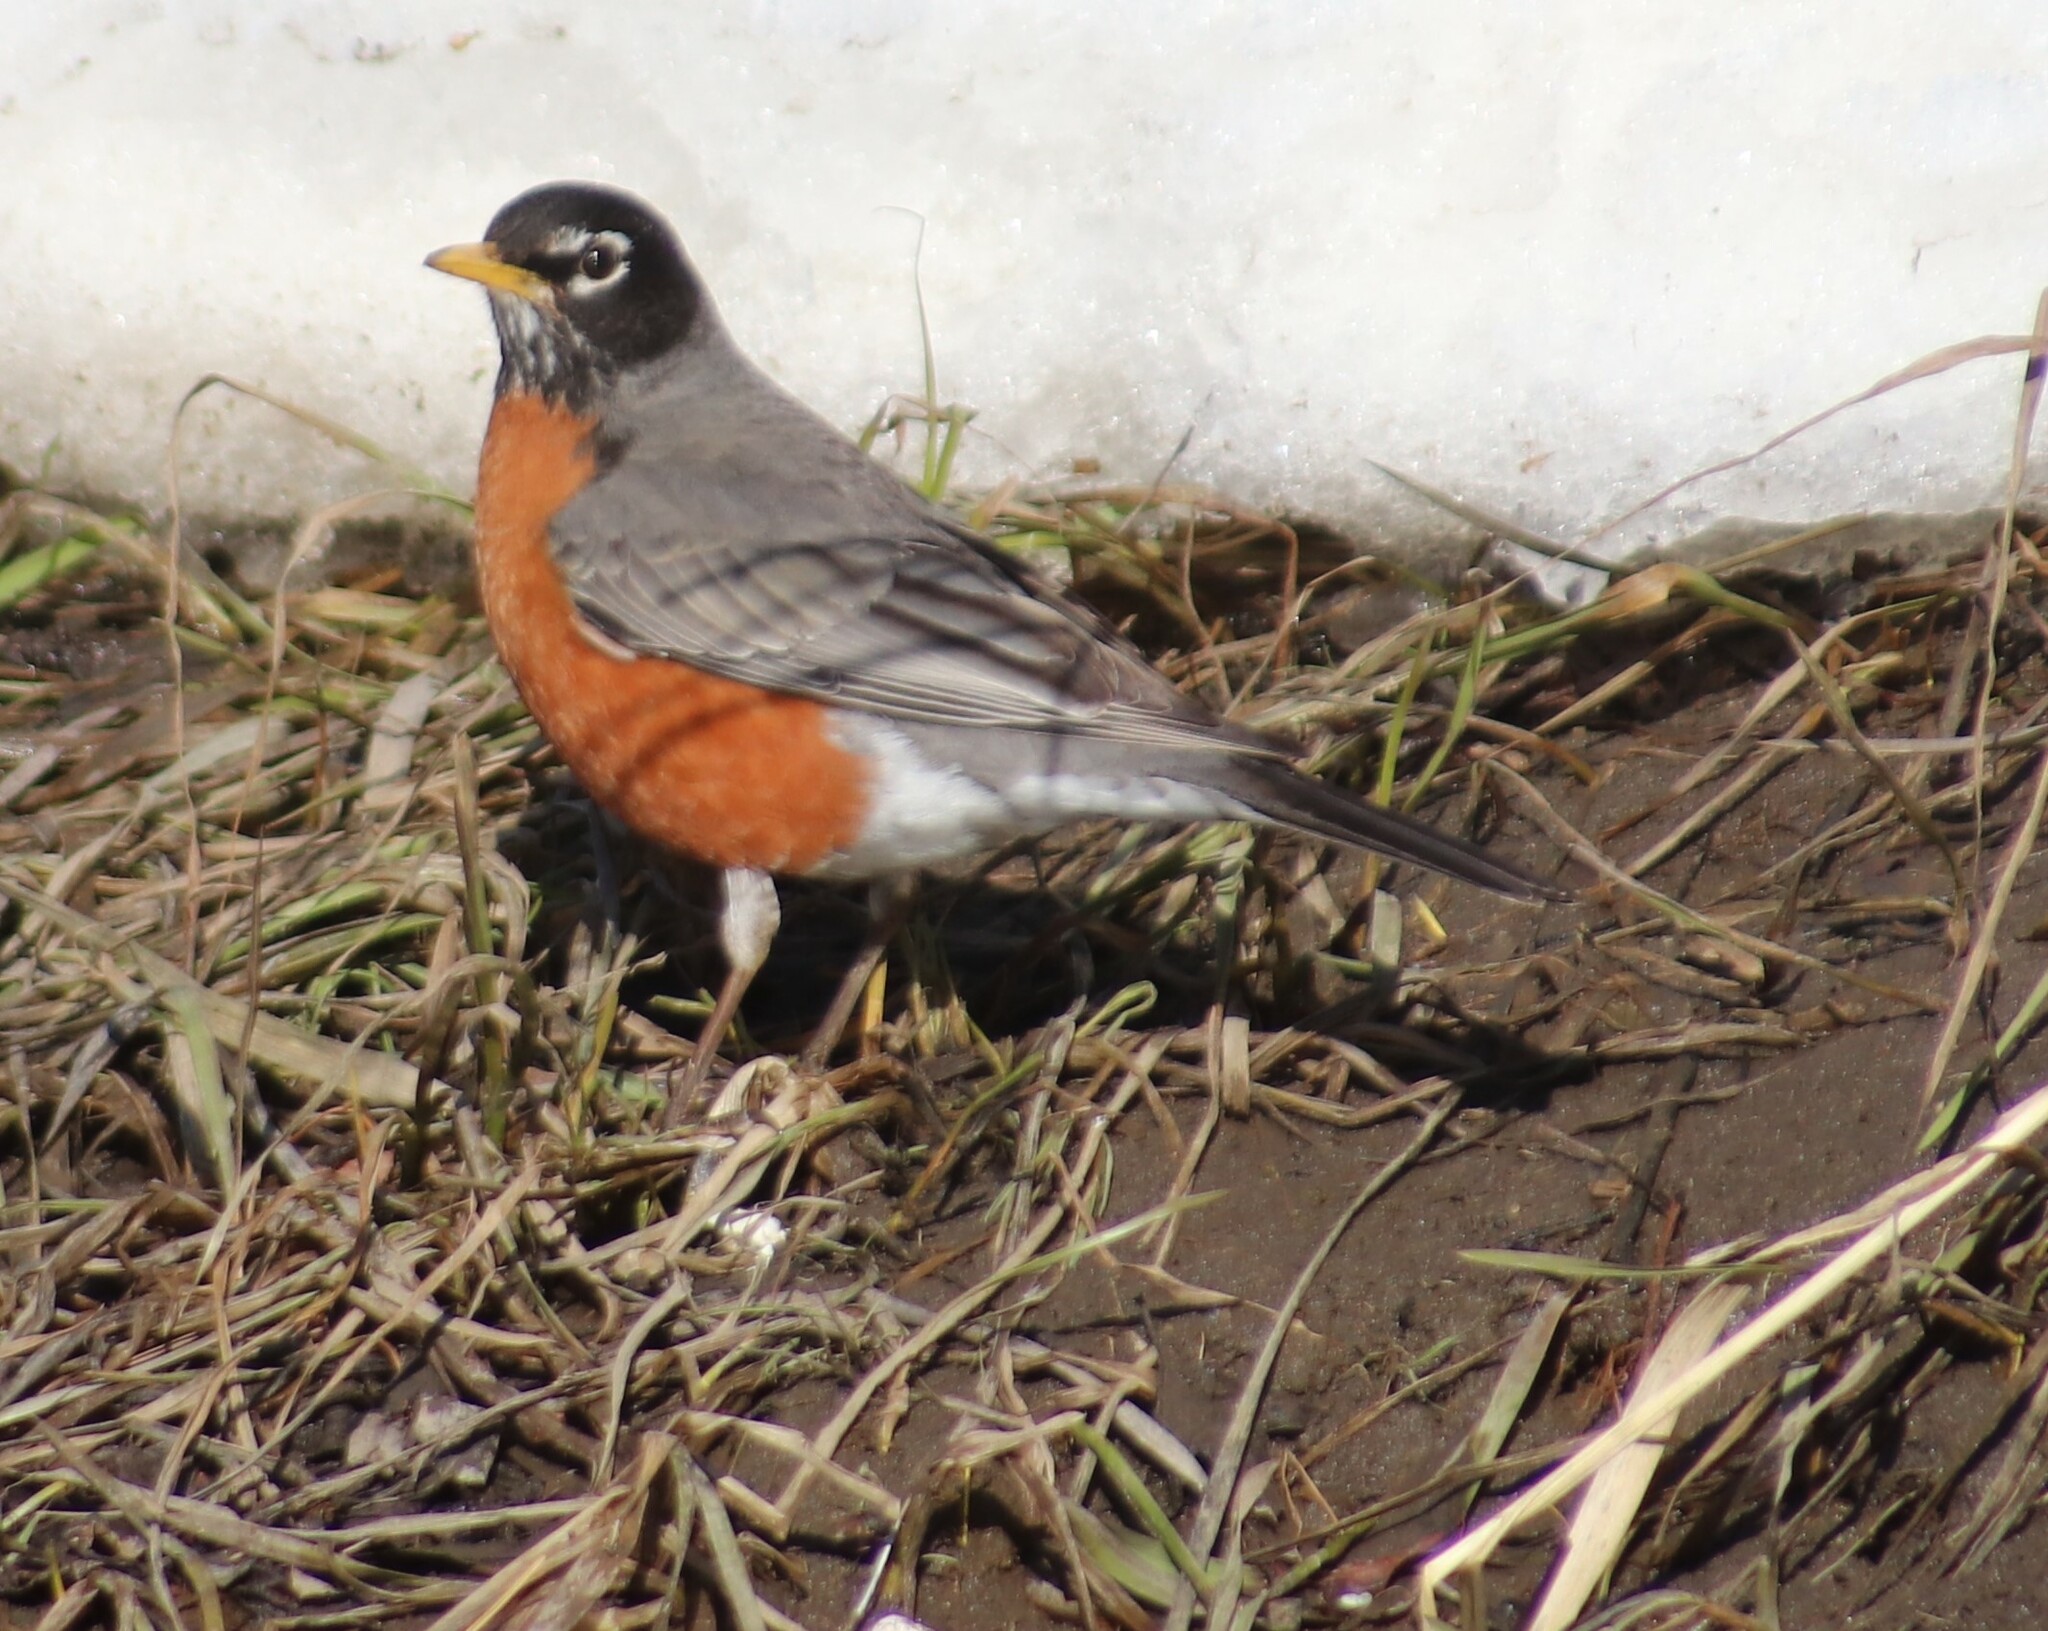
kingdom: Animalia
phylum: Chordata
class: Aves
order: Passeriformes
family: Turdidae
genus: Turdus
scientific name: Turdus migratorius
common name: American robin
